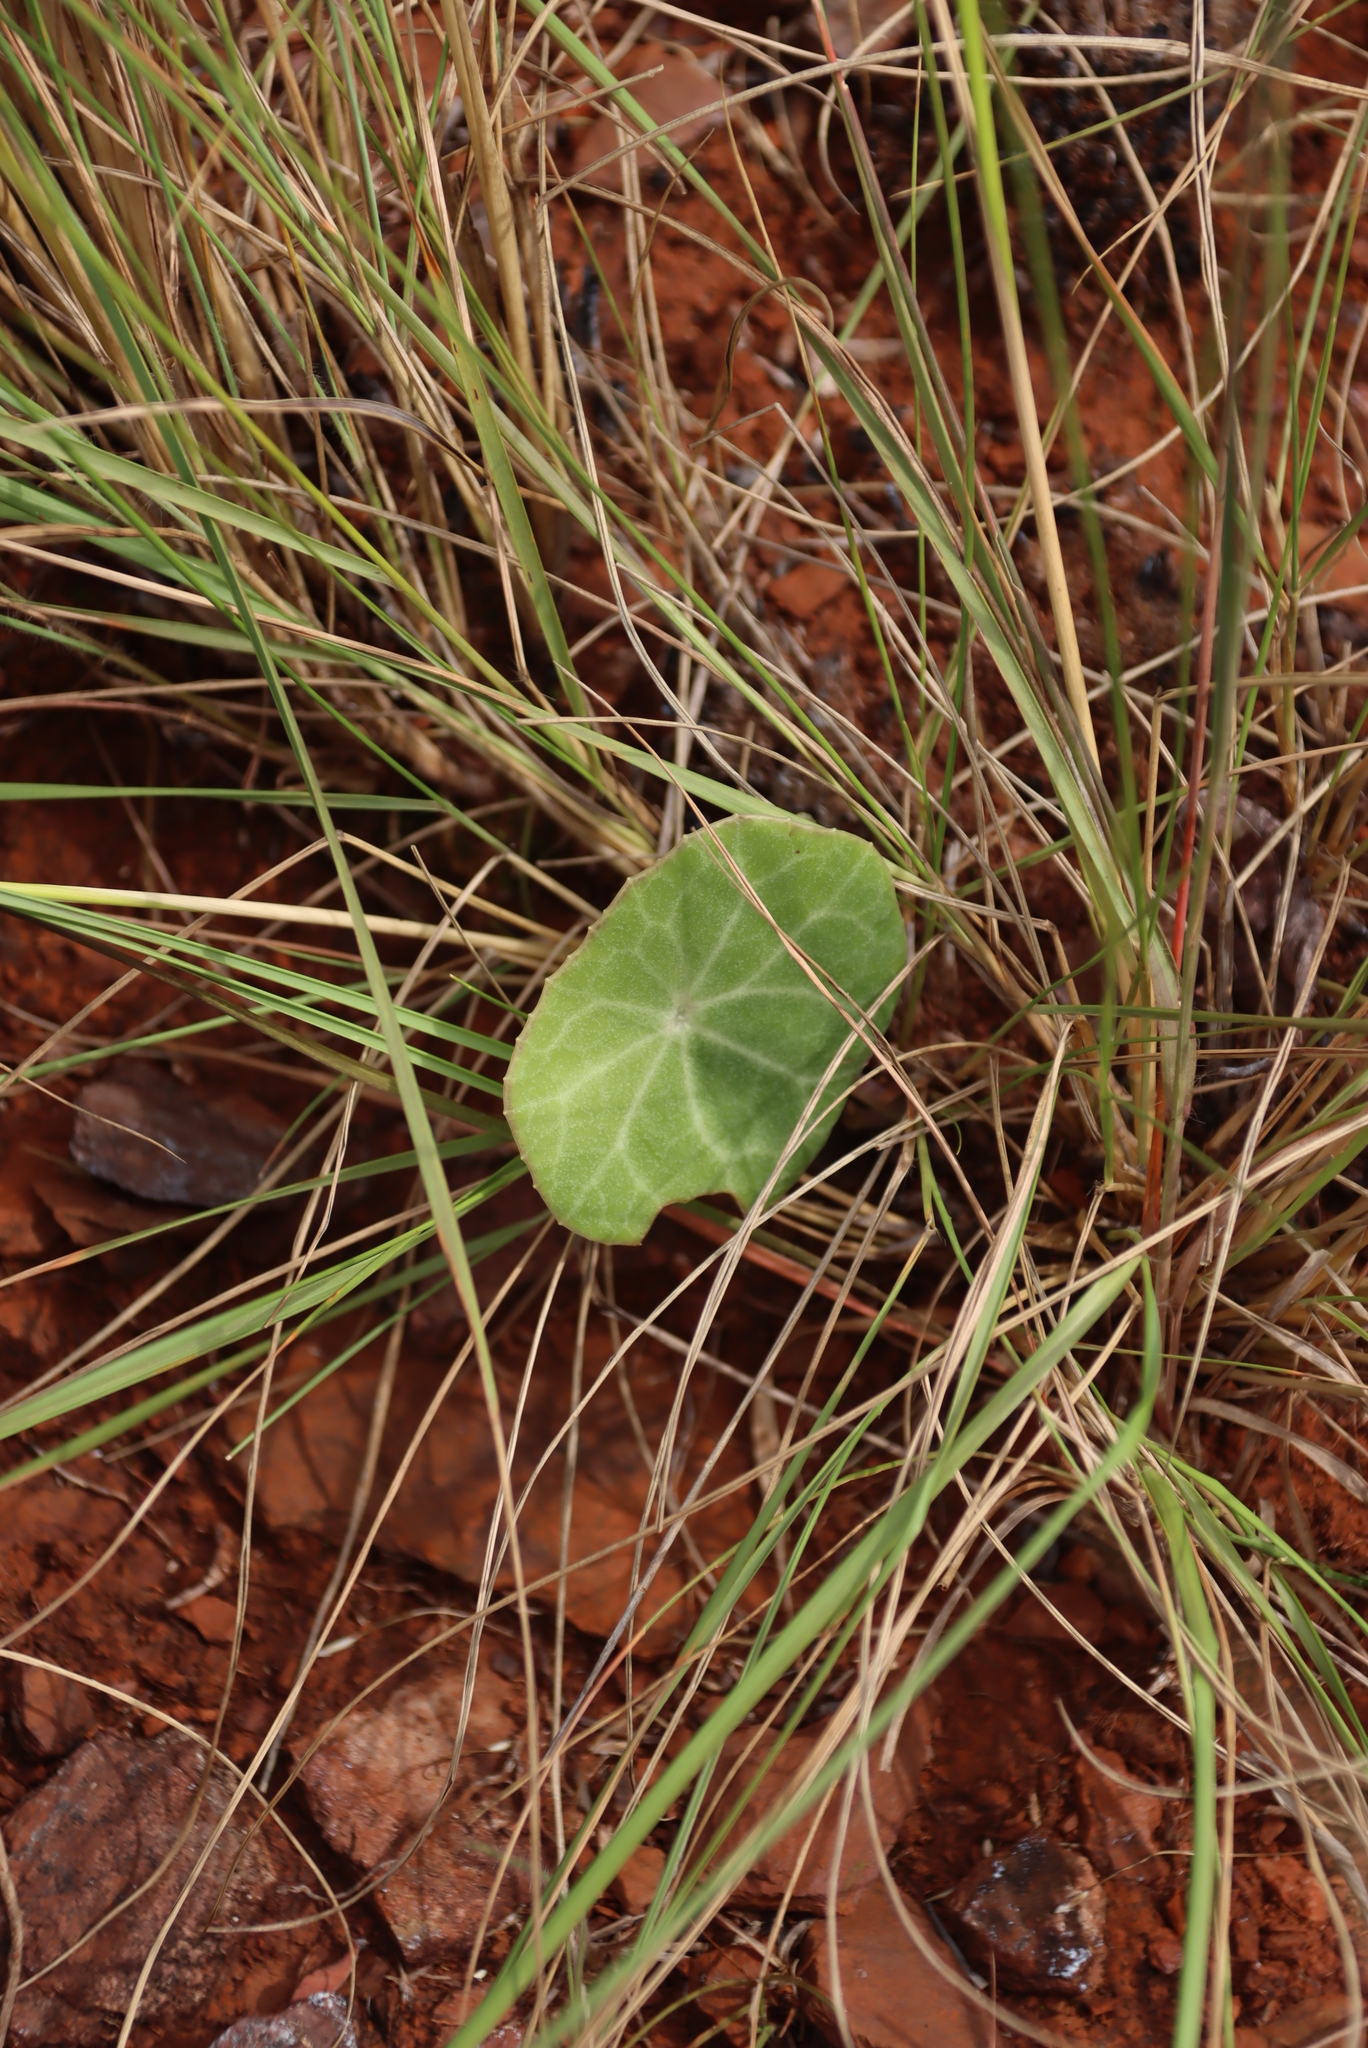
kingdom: Plantae
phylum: Tracheophyta
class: Magnoliopsida
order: Asterales
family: Asteraceae
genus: Senecio
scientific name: Senecio oxyriifolius
